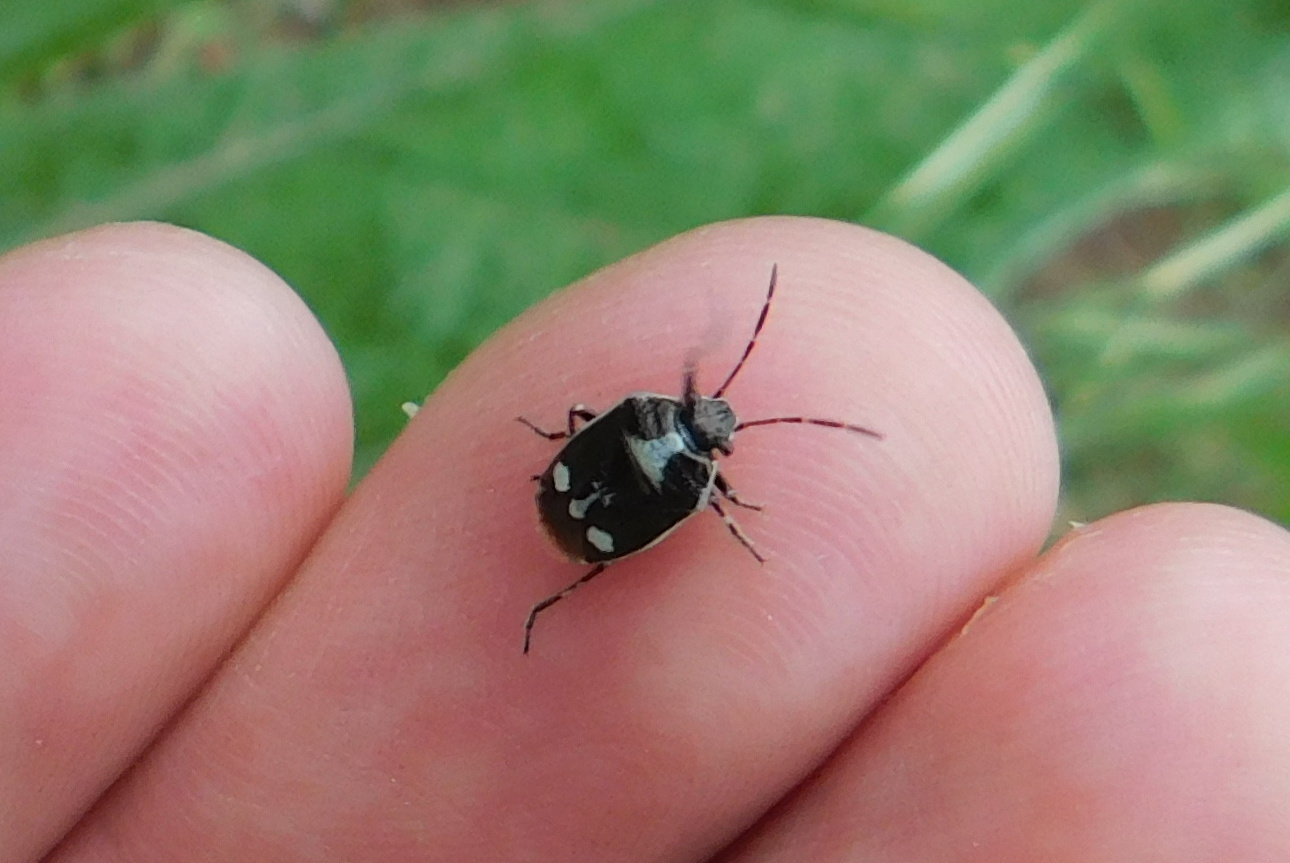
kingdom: Animalia
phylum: Arthropoda
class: Insecta
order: Hemiptera
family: Pentatomidae
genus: Eurydema
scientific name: Eurydema oleracea
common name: Cabbage bug
